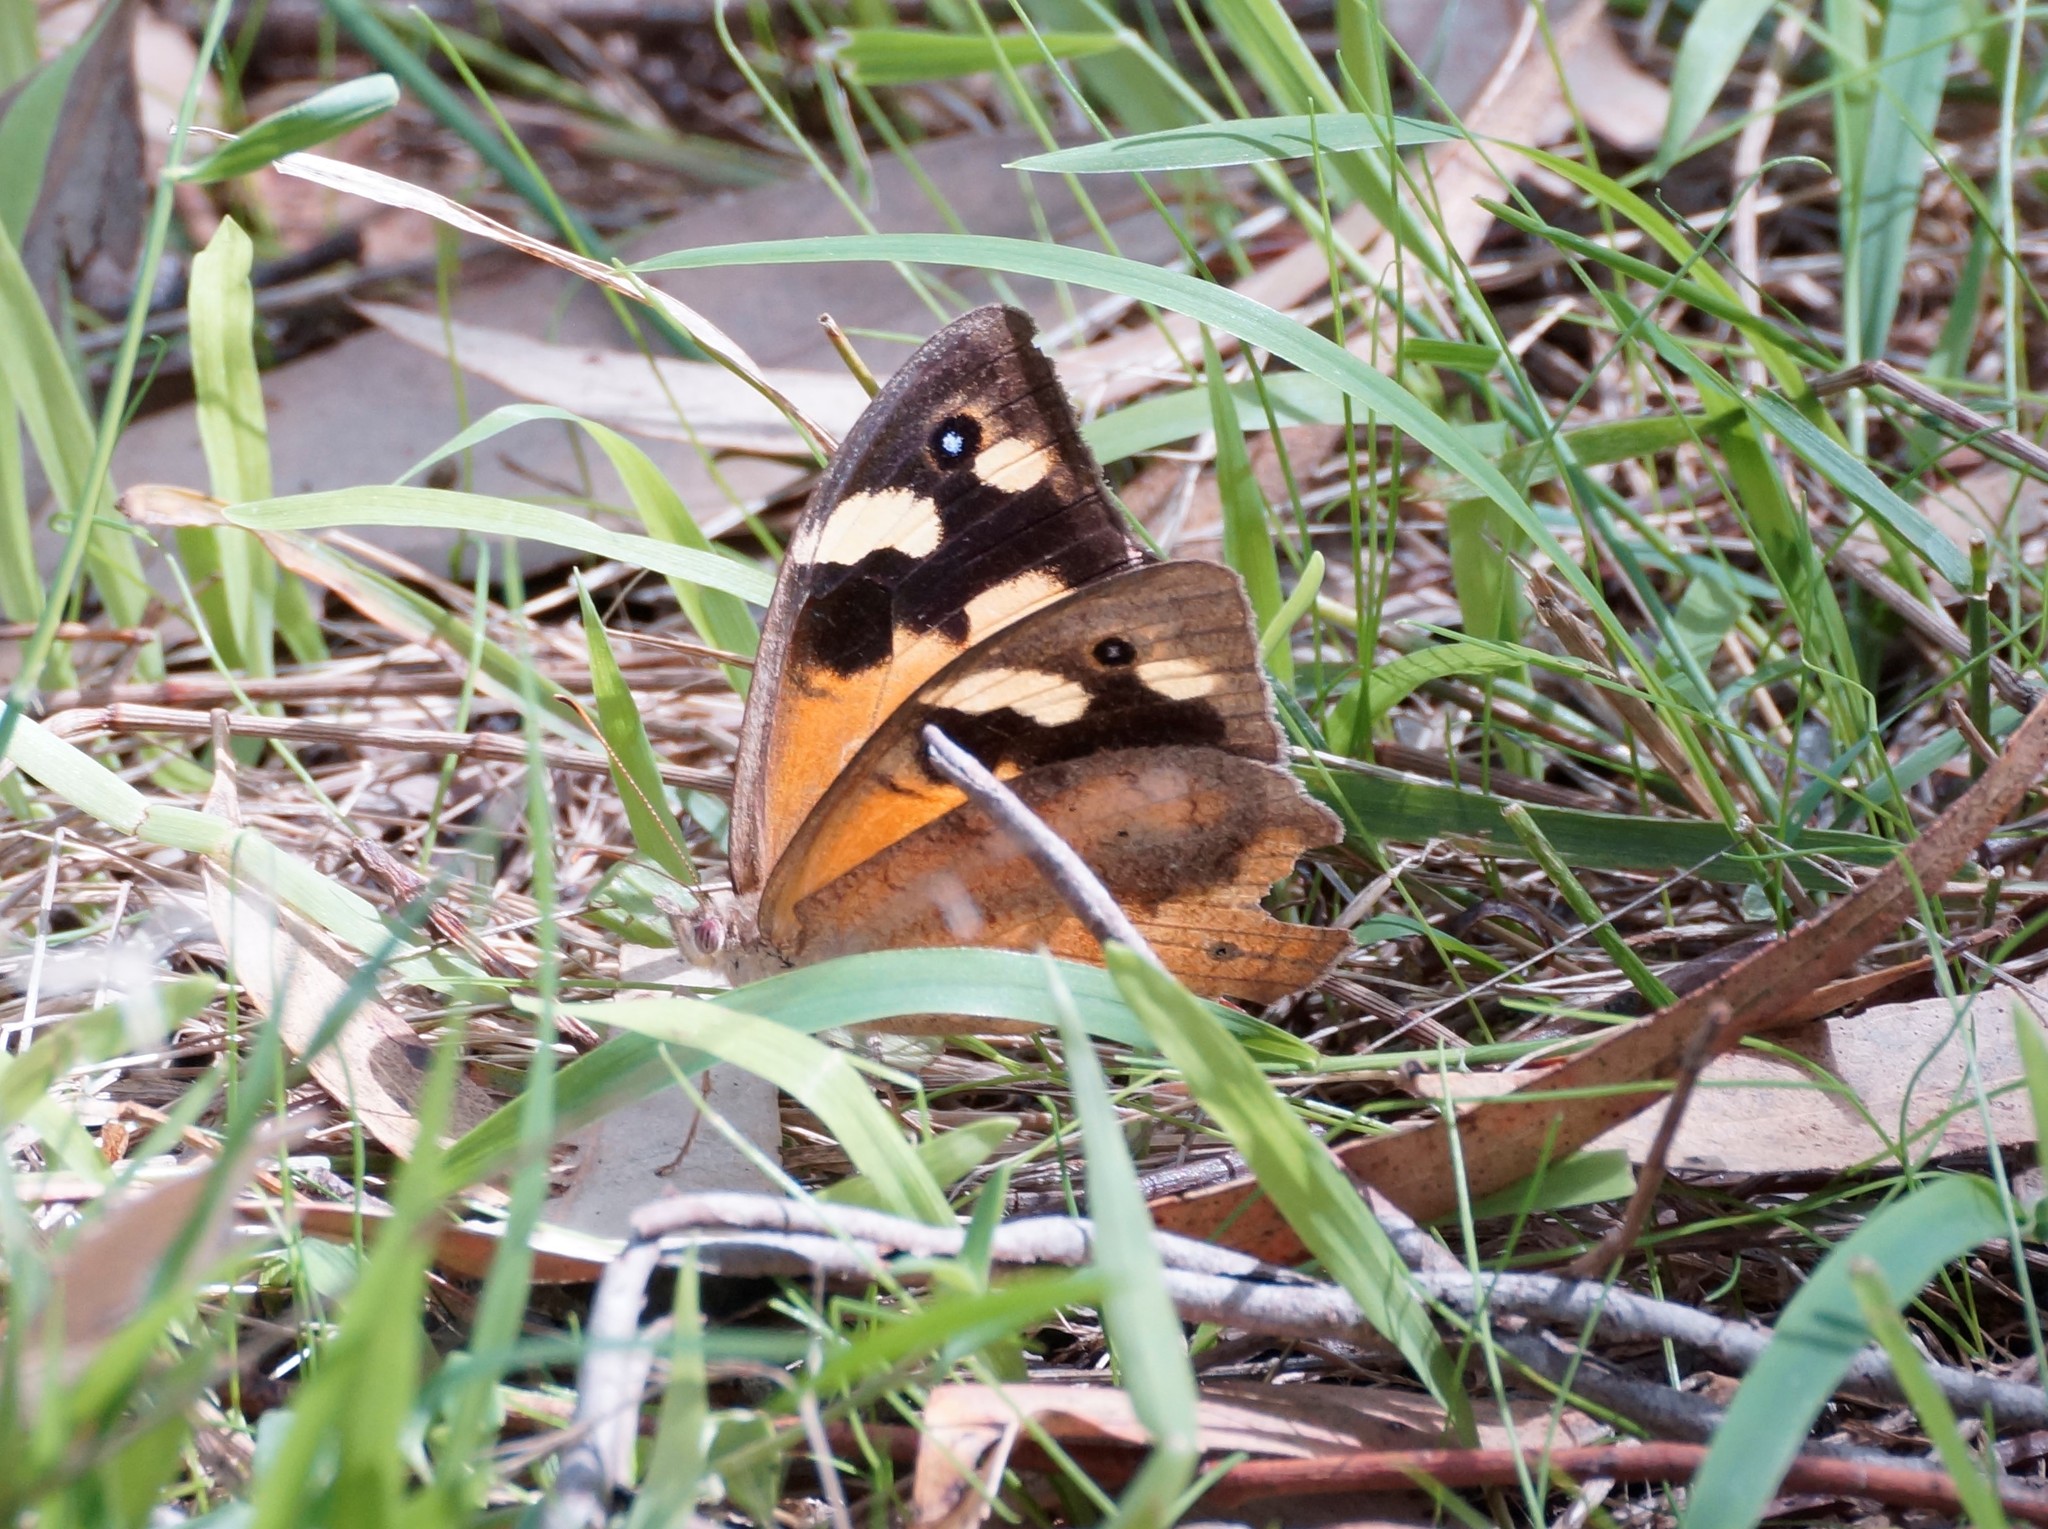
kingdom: Animalia
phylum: Arthropoda
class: Insecta
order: Lepidoptera
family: Nymphalidae
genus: Heteronympha
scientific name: Heteronympha merope
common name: Common brown
